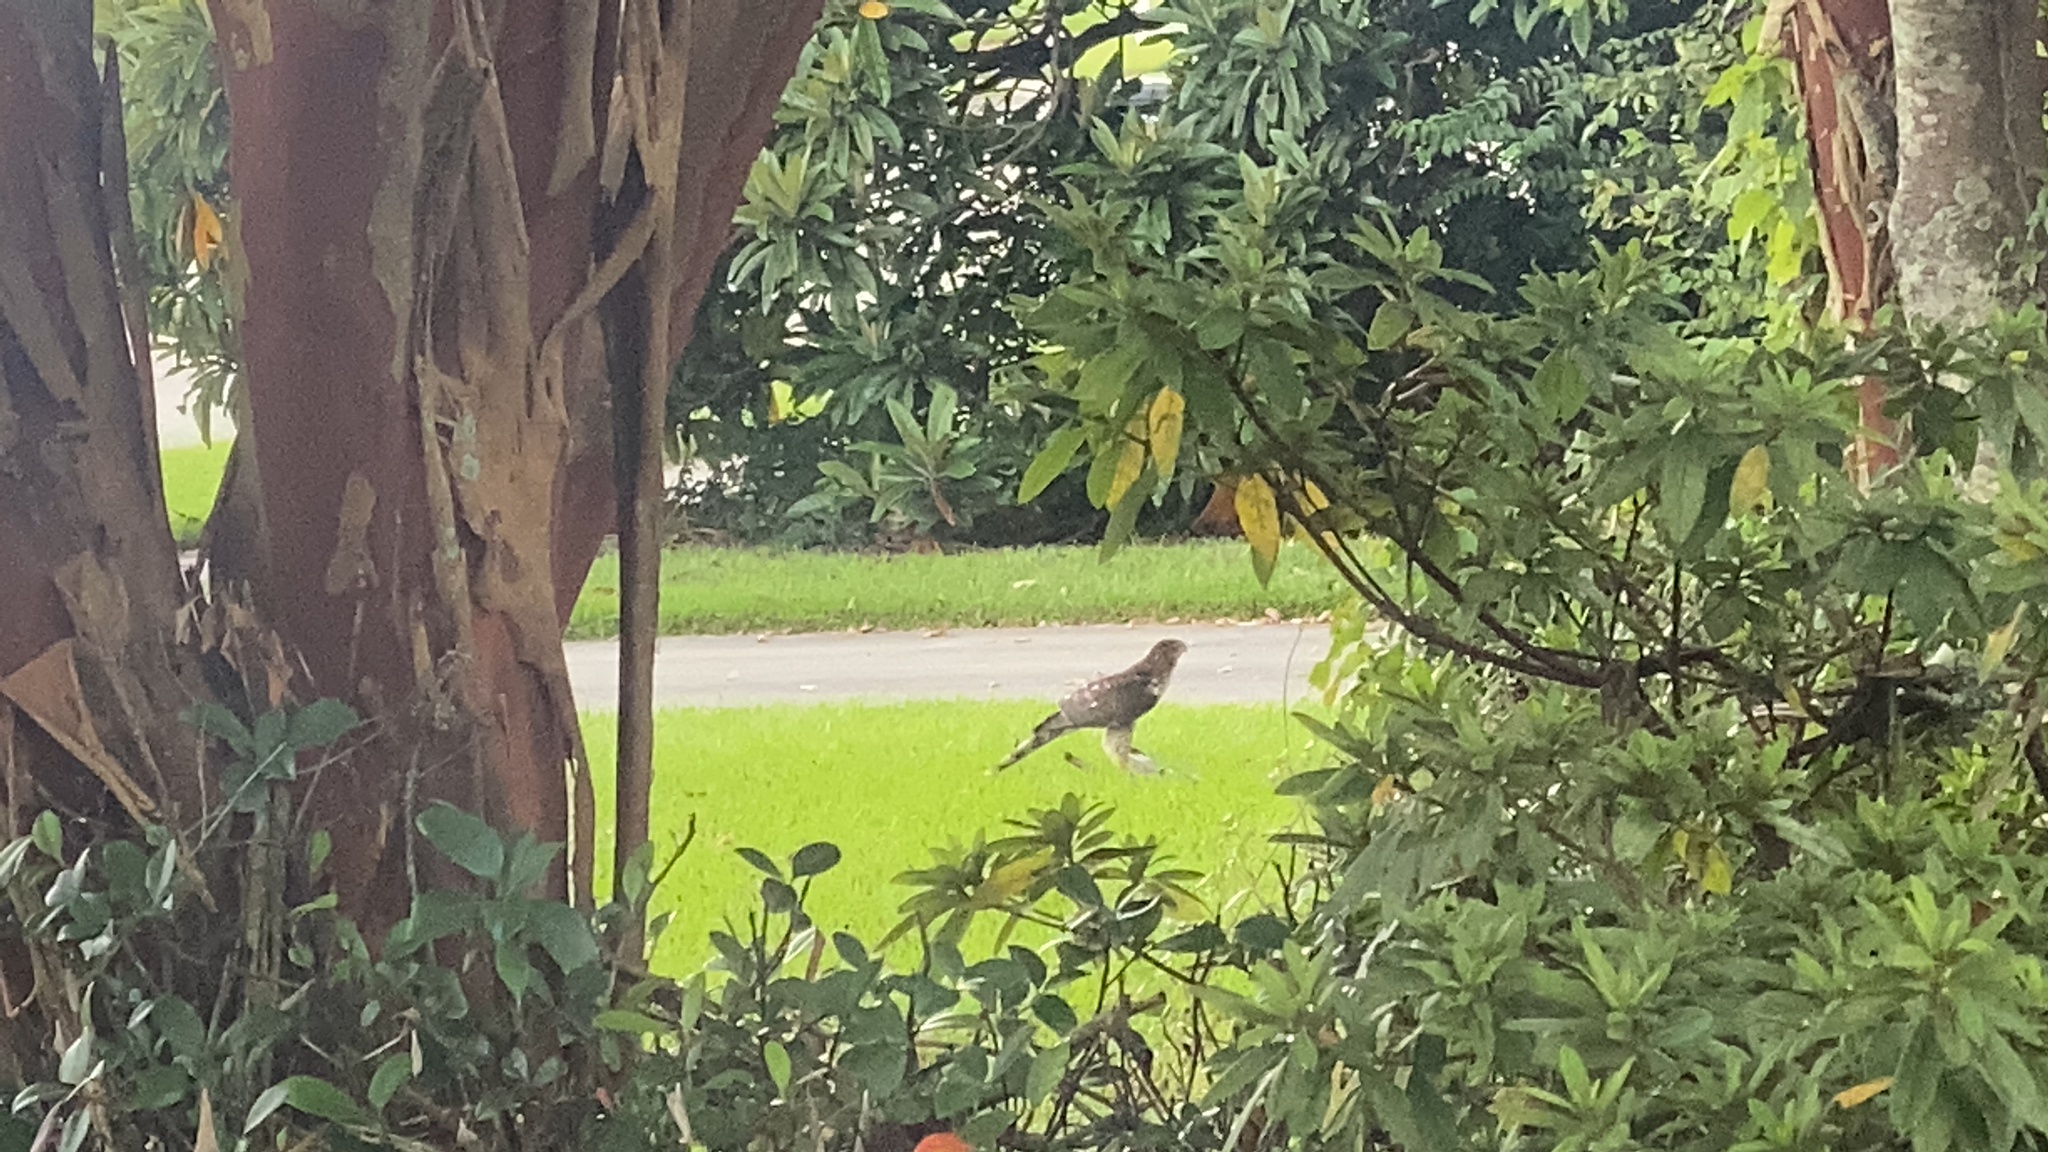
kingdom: Animalia
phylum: Chordata
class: Aves
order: Accipitriformes
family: Accipitridae
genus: Accipiter
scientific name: Accipiter cooperii
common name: Cooper's hawk
